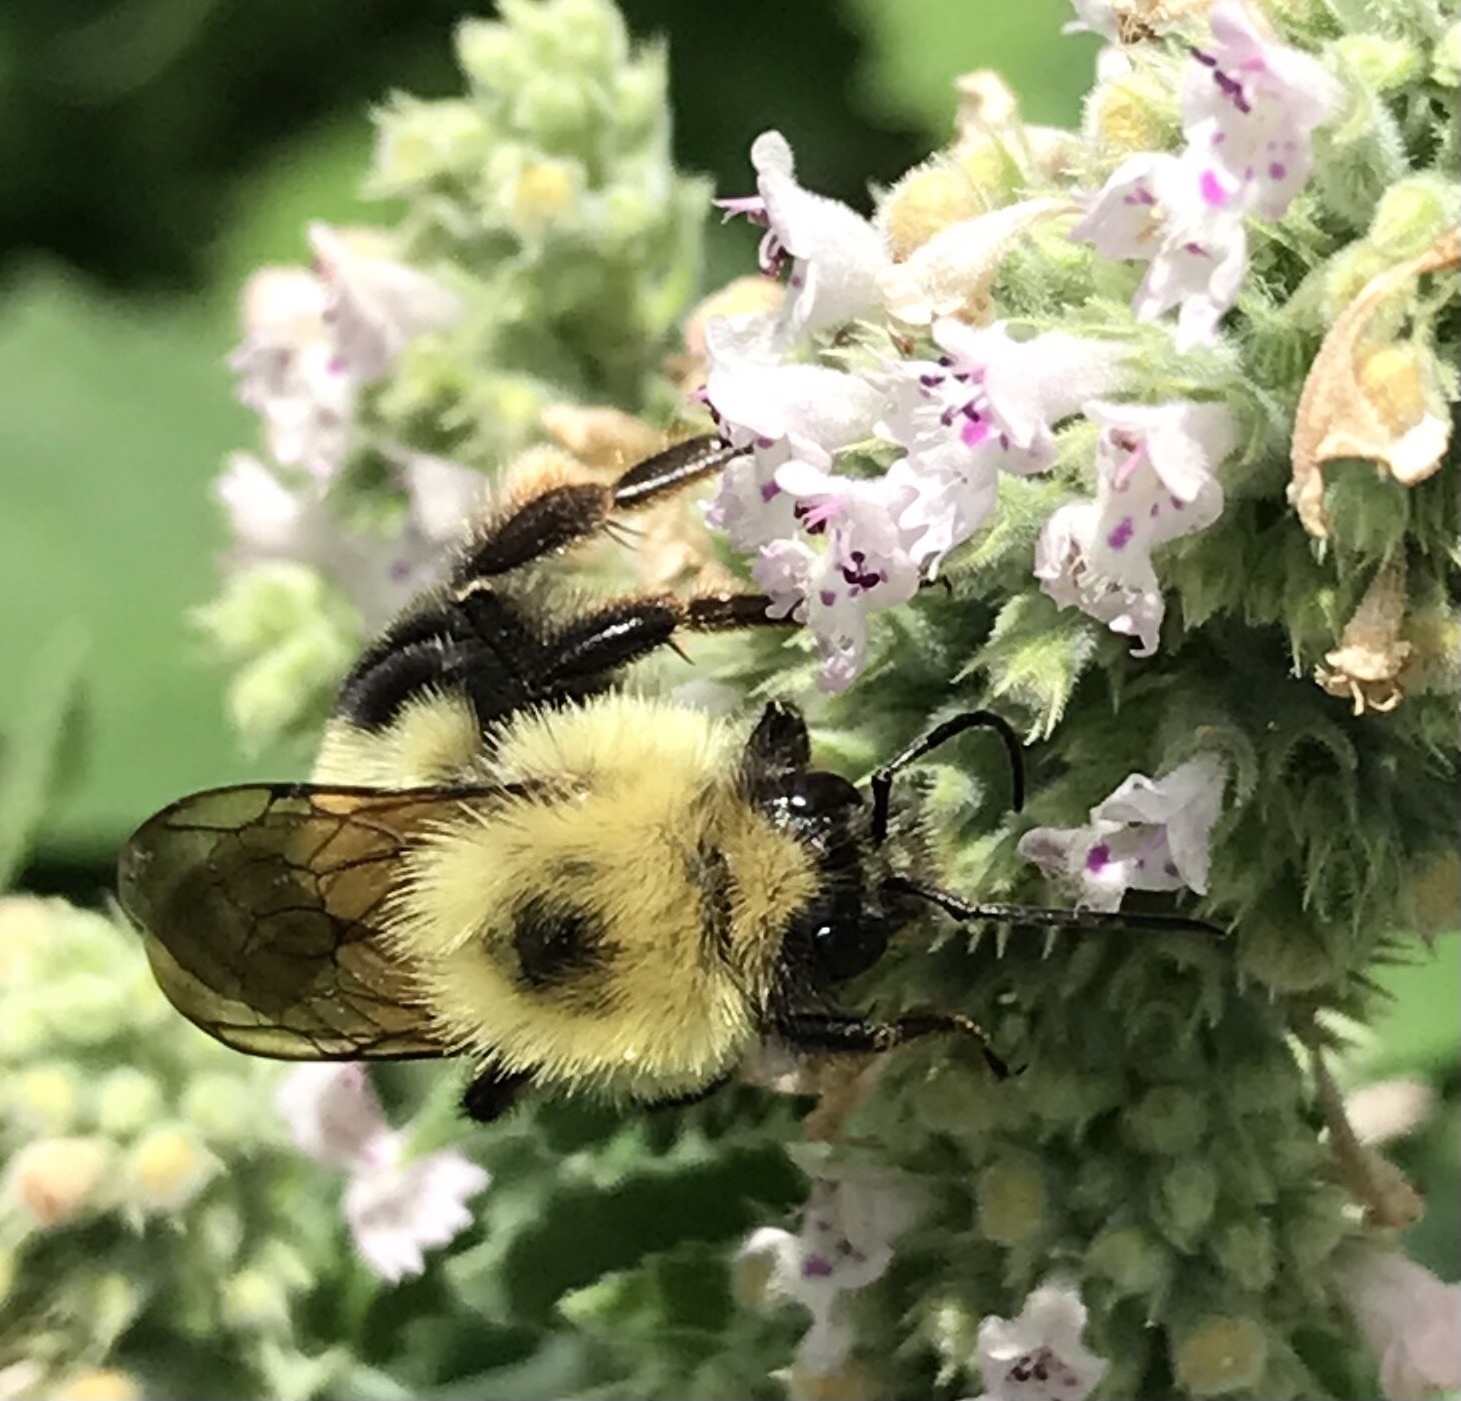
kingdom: Animalia
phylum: Arthropoda
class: Insecta
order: Hymenoptera
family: Apidae
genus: Bombus
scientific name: Bombus bimaculatus
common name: Two-spotted bumble bee
